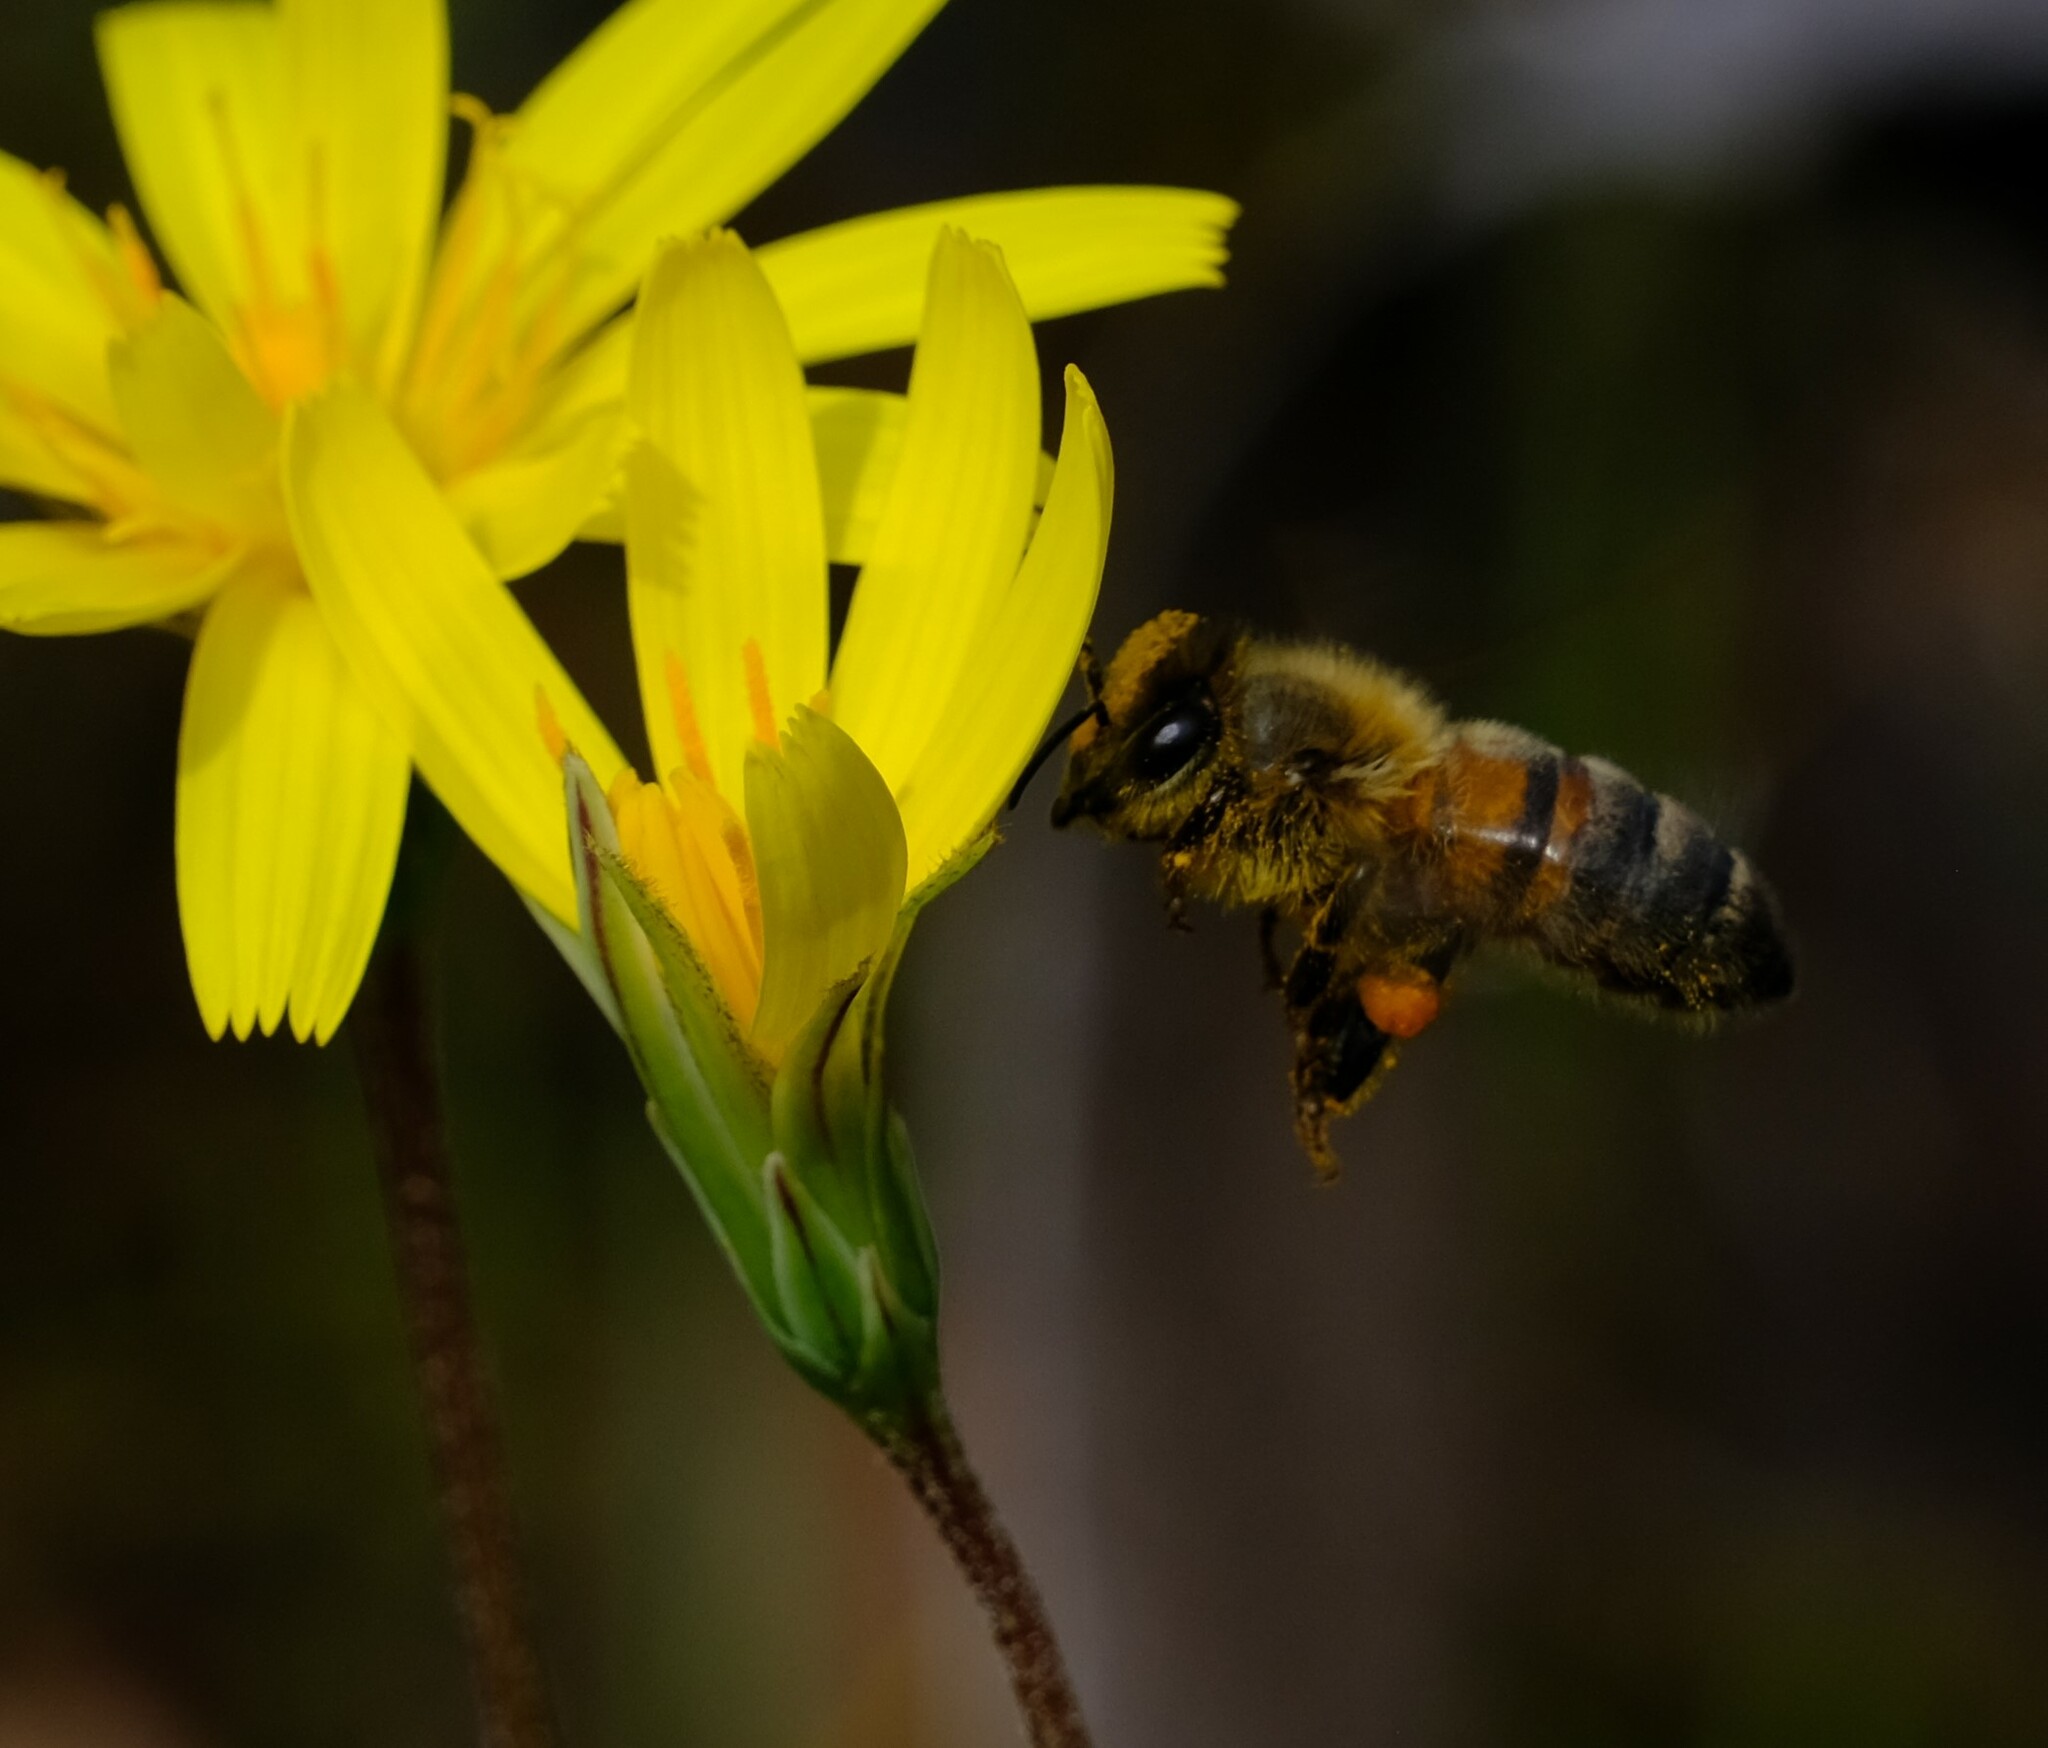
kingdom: Animalia
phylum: Arthropoda
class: Insecta
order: Hymenoptera
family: Apidae
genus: Apis
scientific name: Apis mellifera
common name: Honey bee
